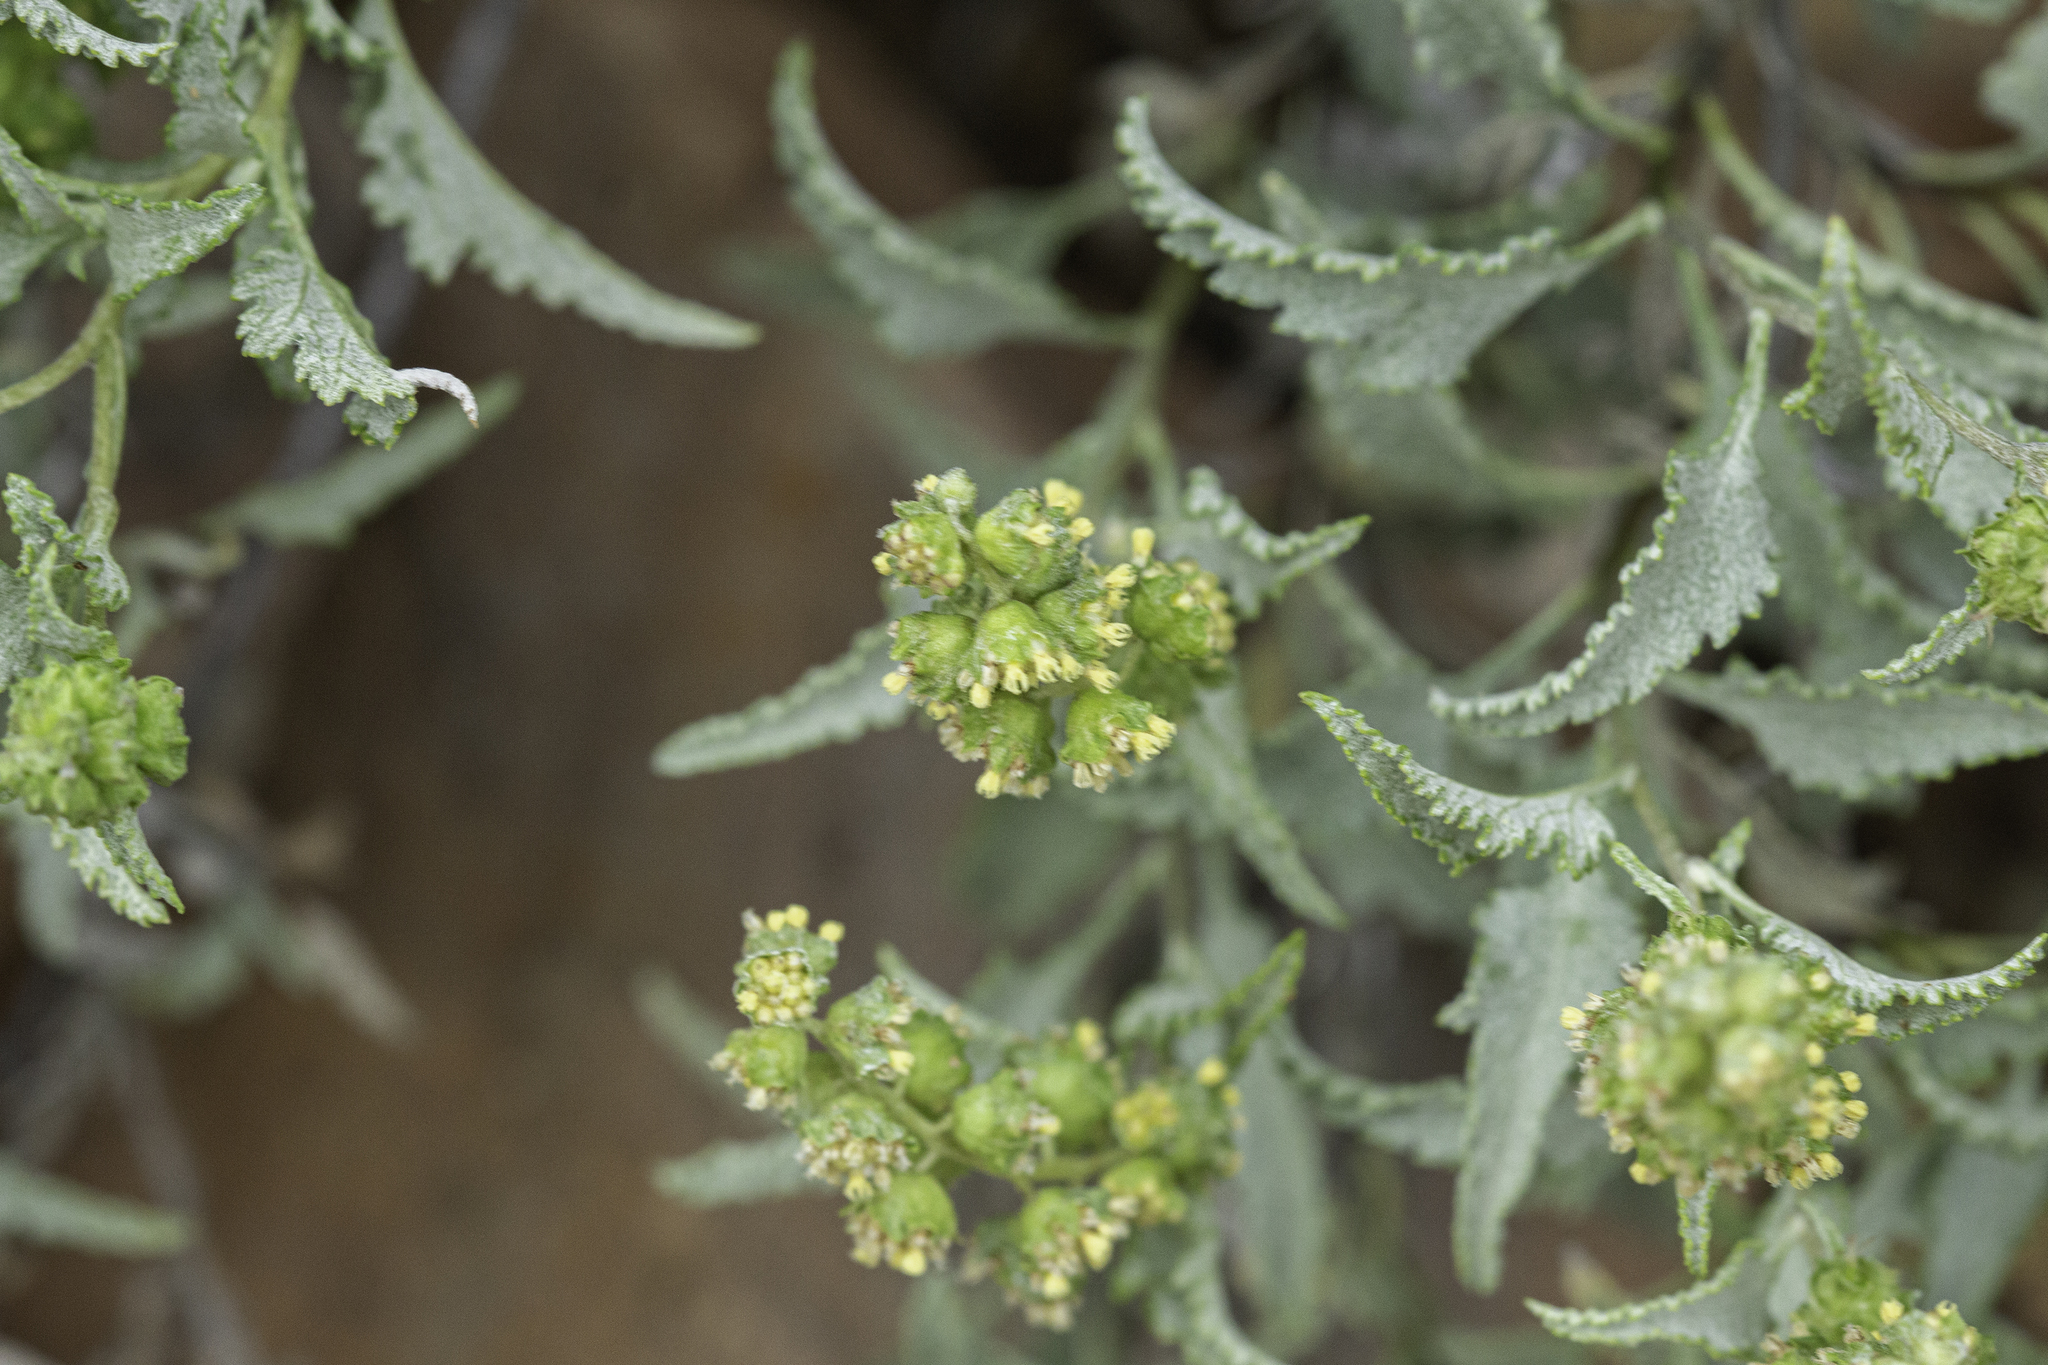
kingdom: Plantae
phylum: Tracheophyta
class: Magnoliopsida
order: Asterales
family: Asteraceae
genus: Ambrosia
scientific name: Ambrosia deltoidea
